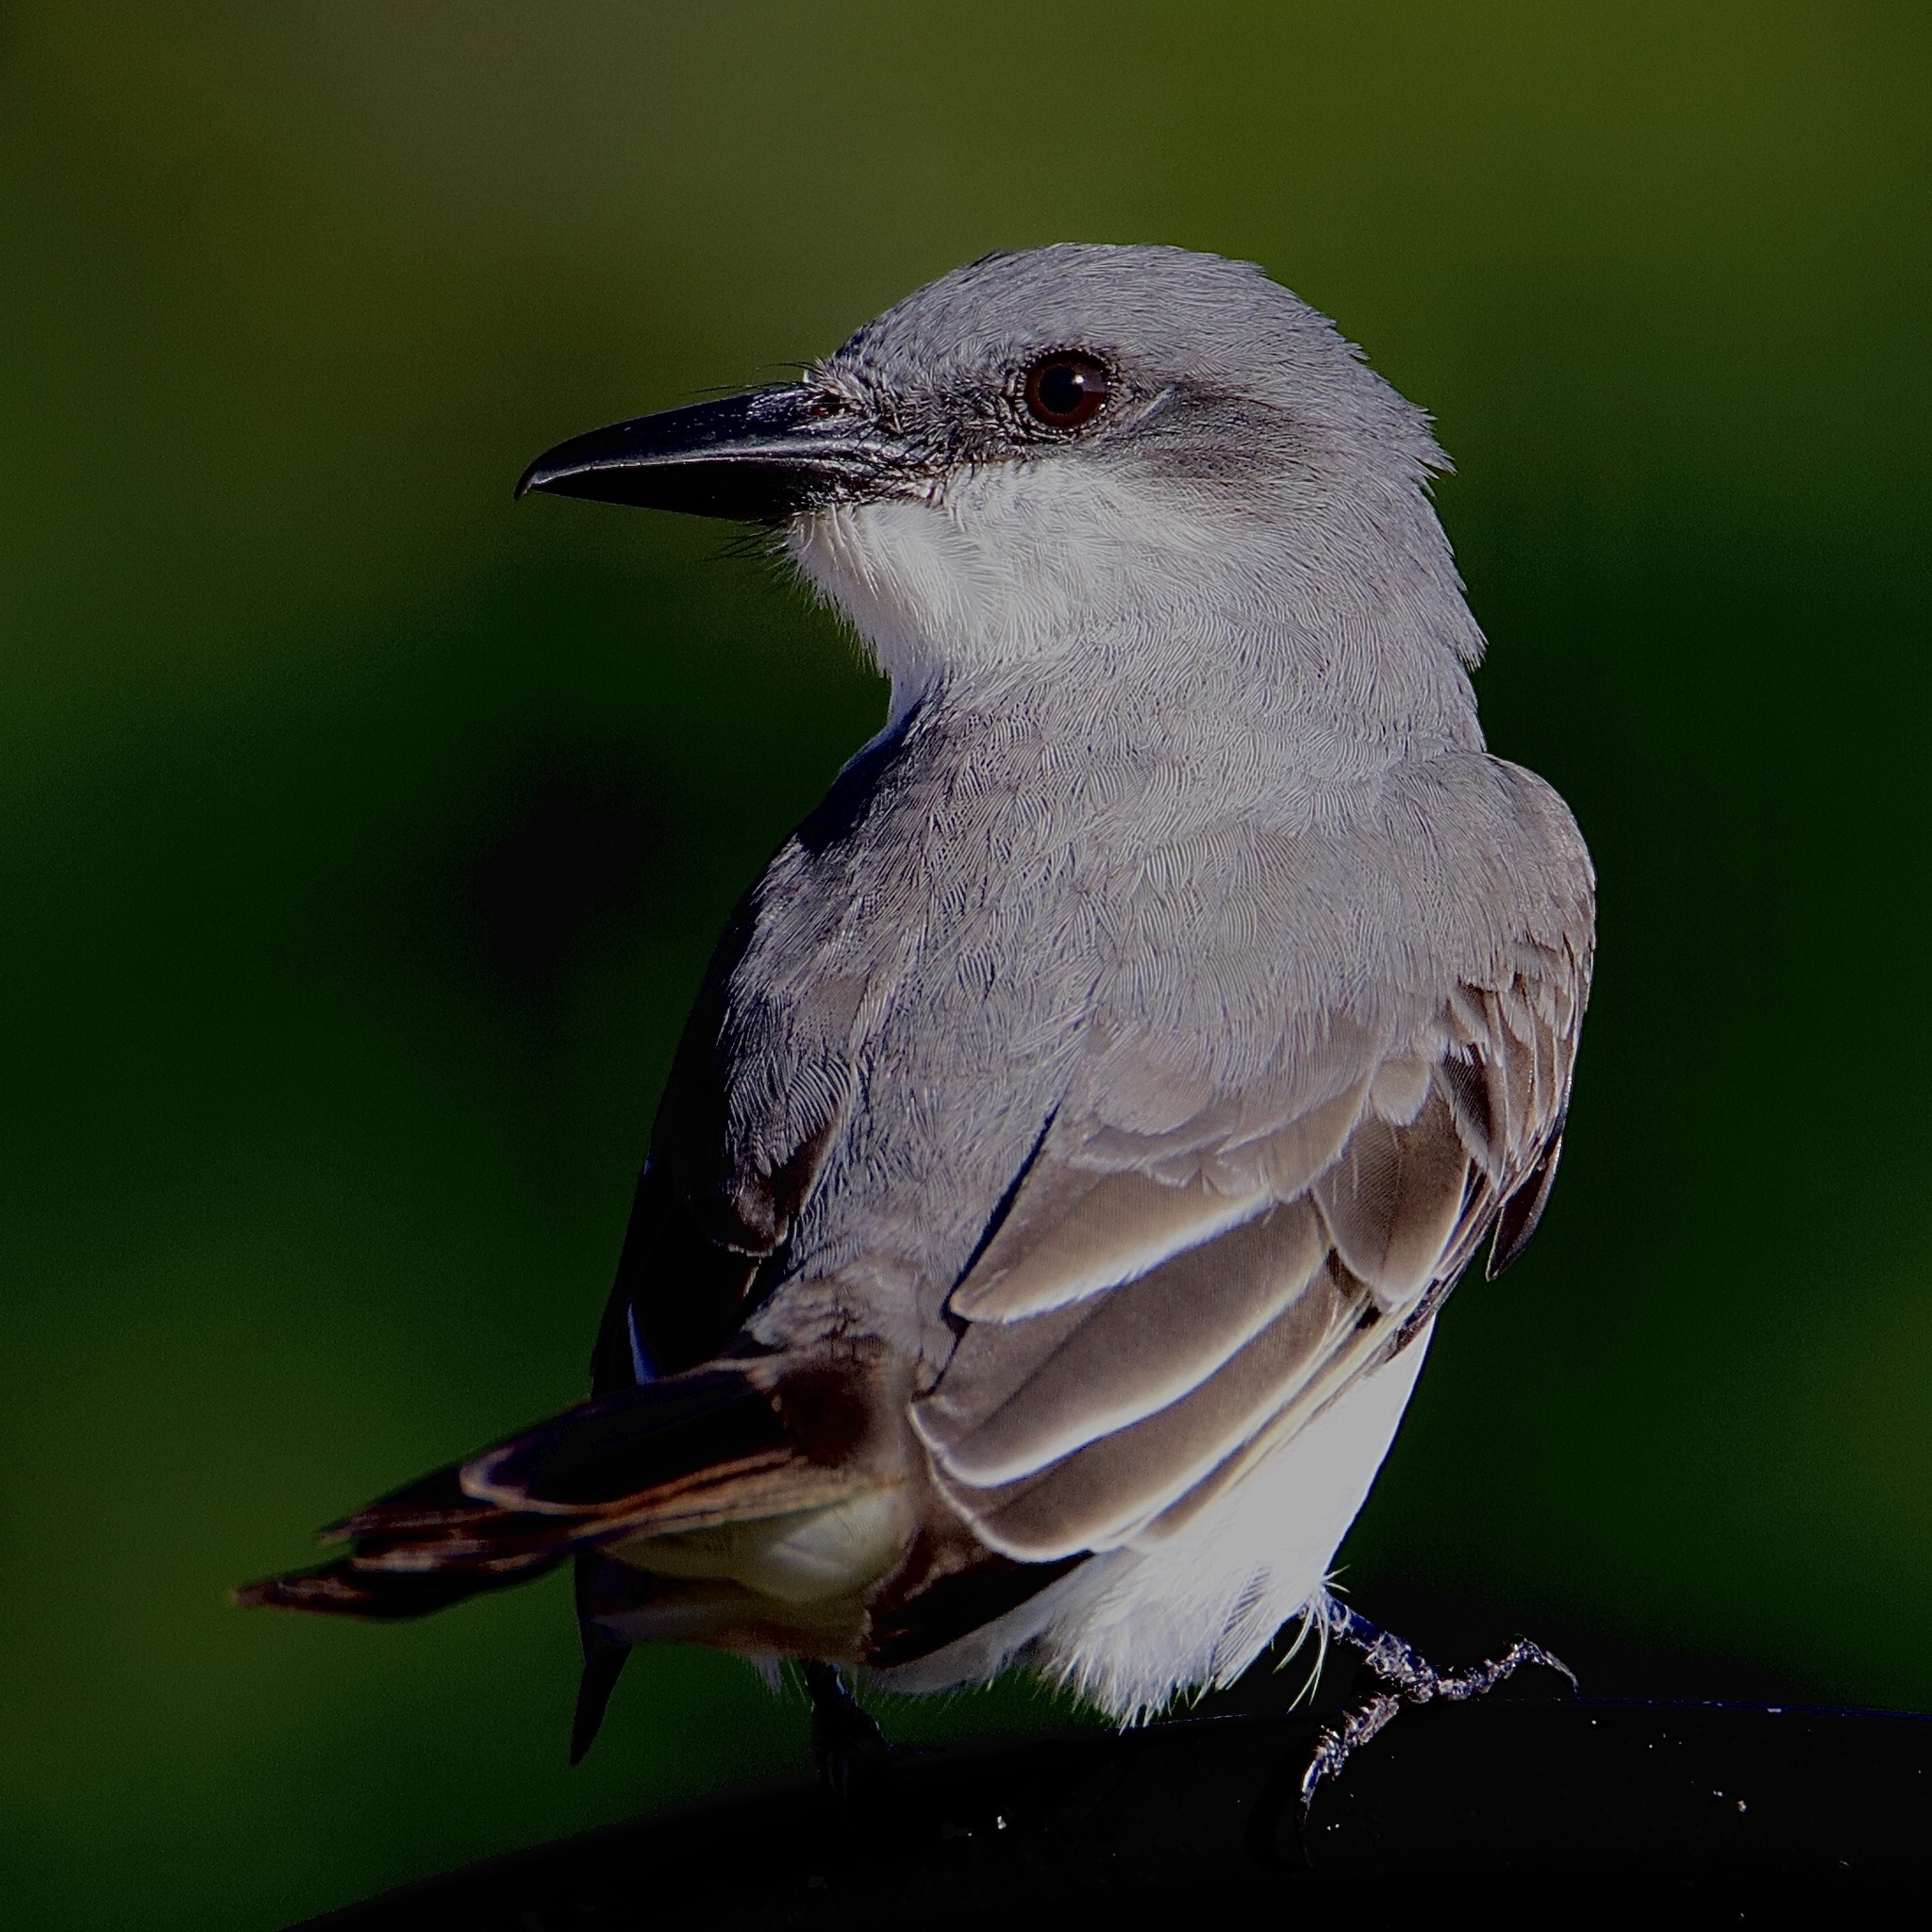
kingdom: Animalia
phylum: Chordata
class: Aves
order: Passeriformes
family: Tyrannidae
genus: Tyrannus
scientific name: Tyrannus dominicensis
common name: Gray kingbird
